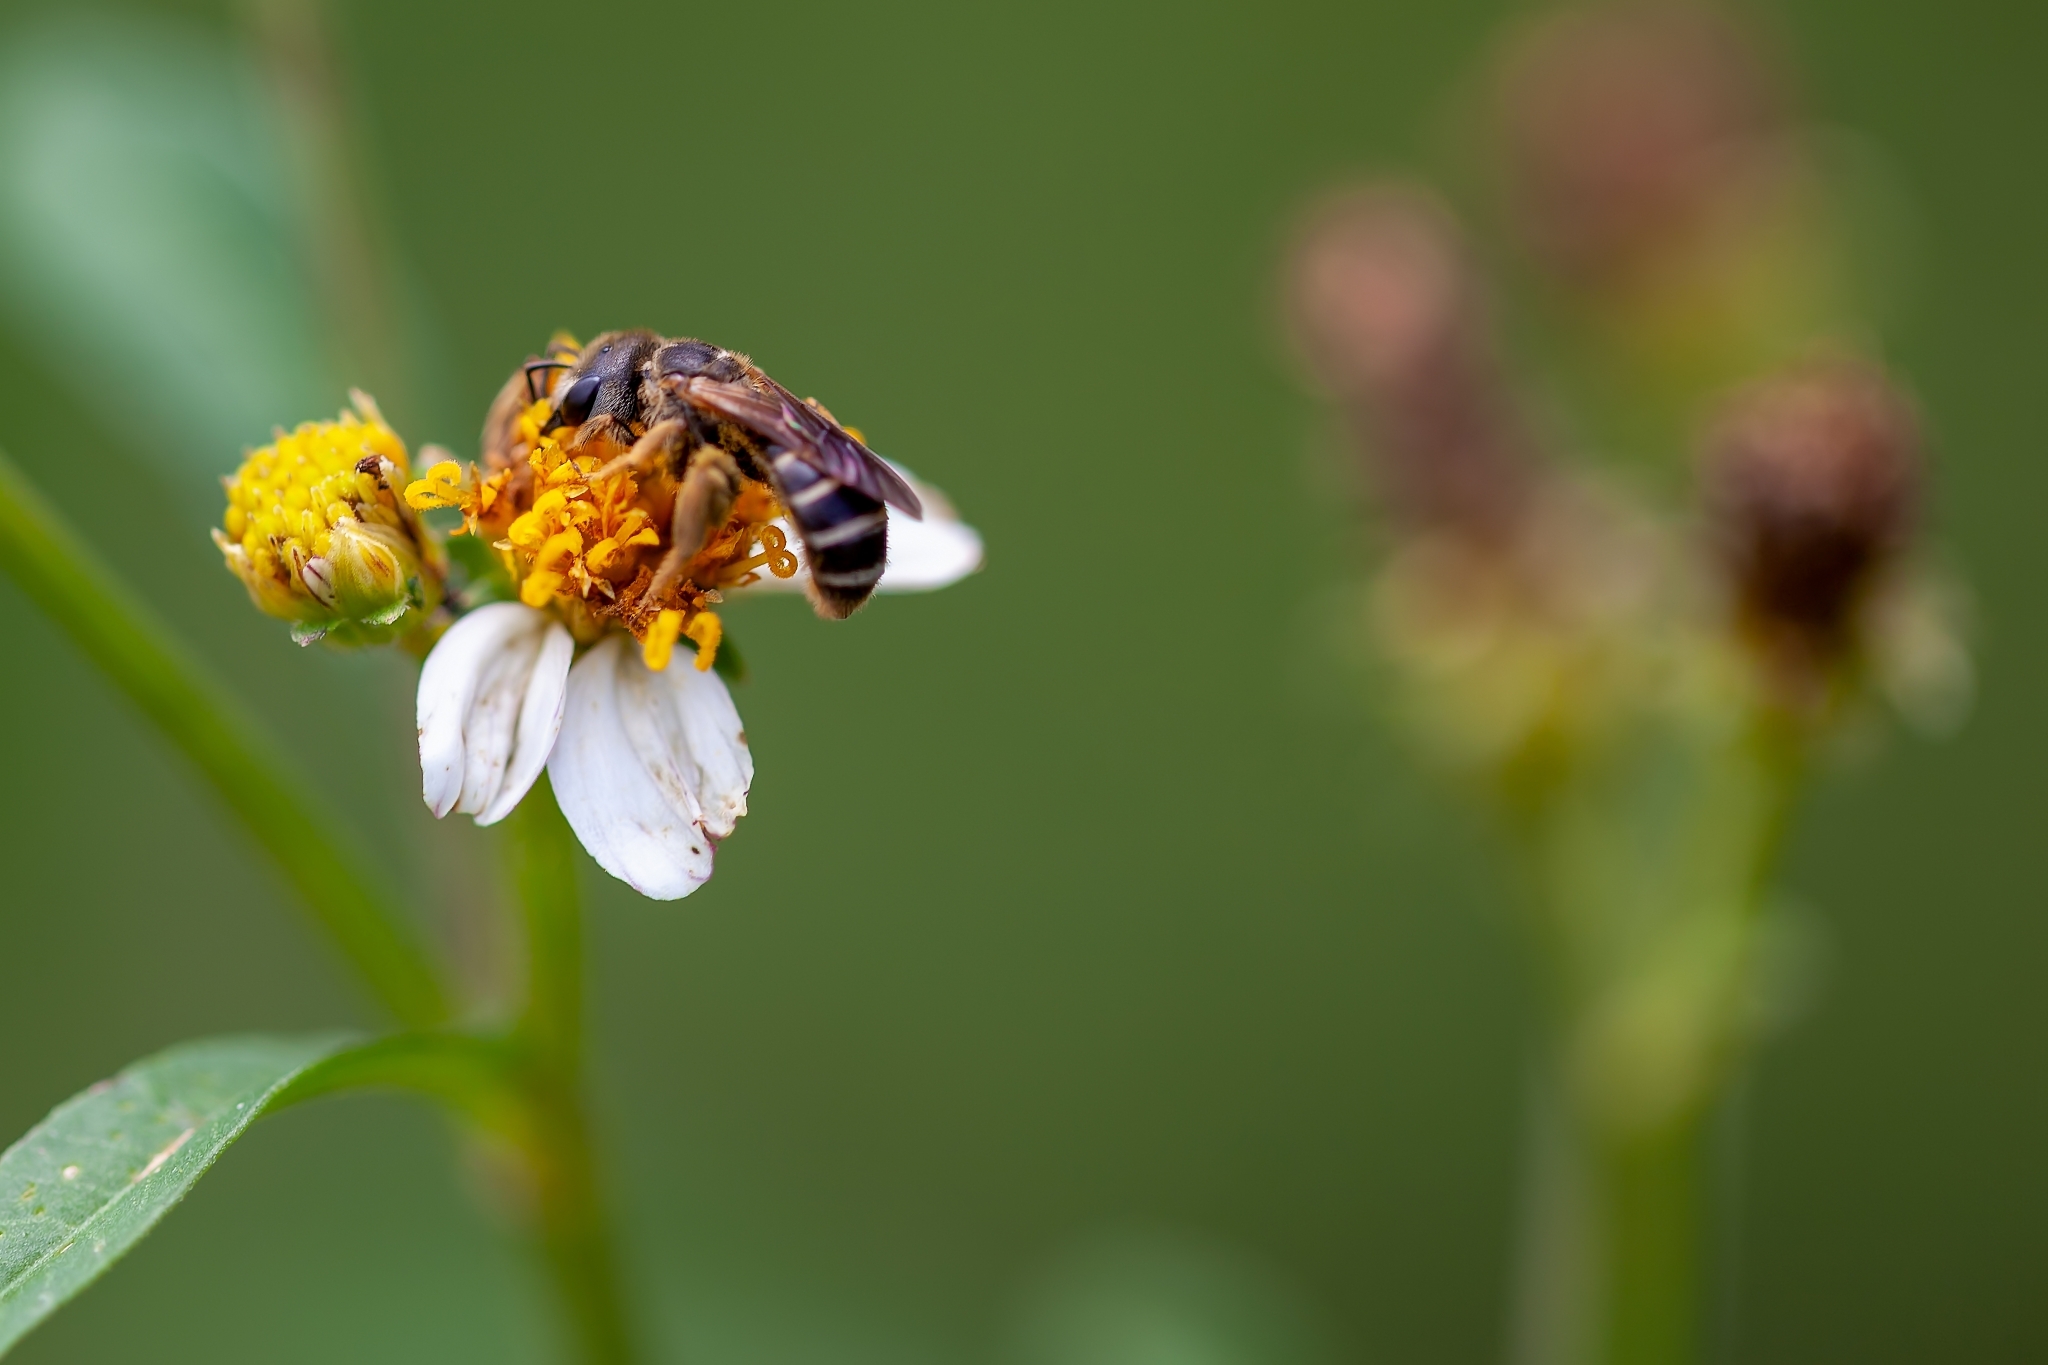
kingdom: Animalia
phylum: Arthropoda
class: Insecta
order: Hymenoptera
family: Halictidae
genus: Halictus
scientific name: Halictus poeyi
